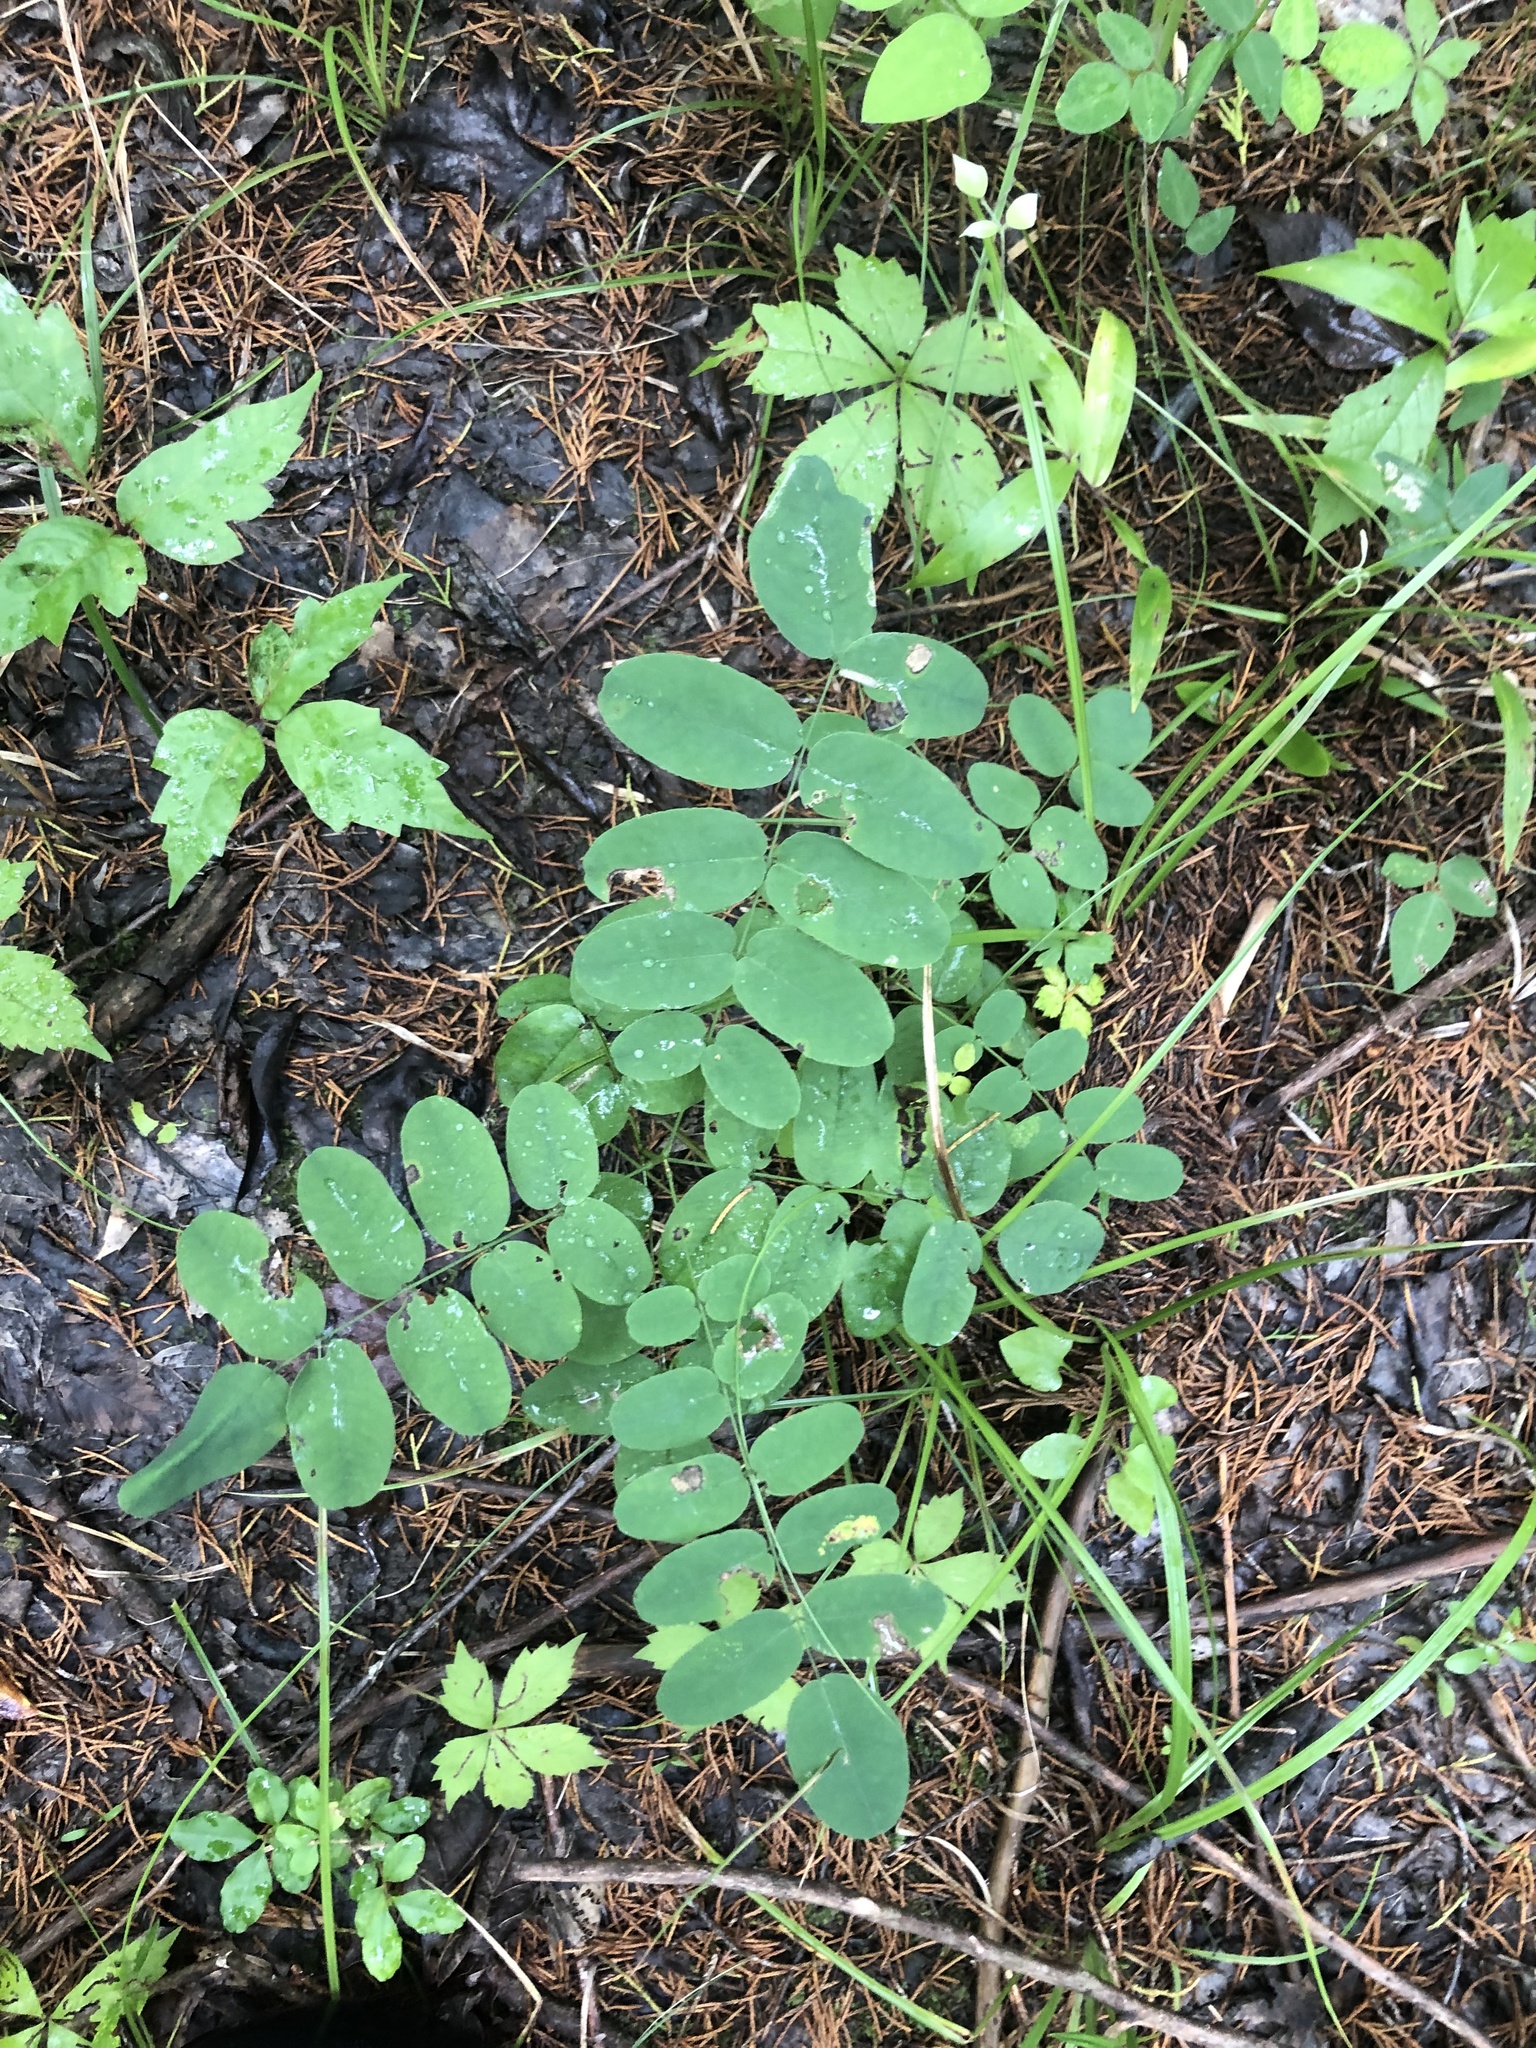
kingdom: Plantae
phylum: Tracheophyta
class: Magnoliopsida
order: Fabales
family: Fabaceae
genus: Amorpha
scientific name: Amorpha fruticosa
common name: False indigo
